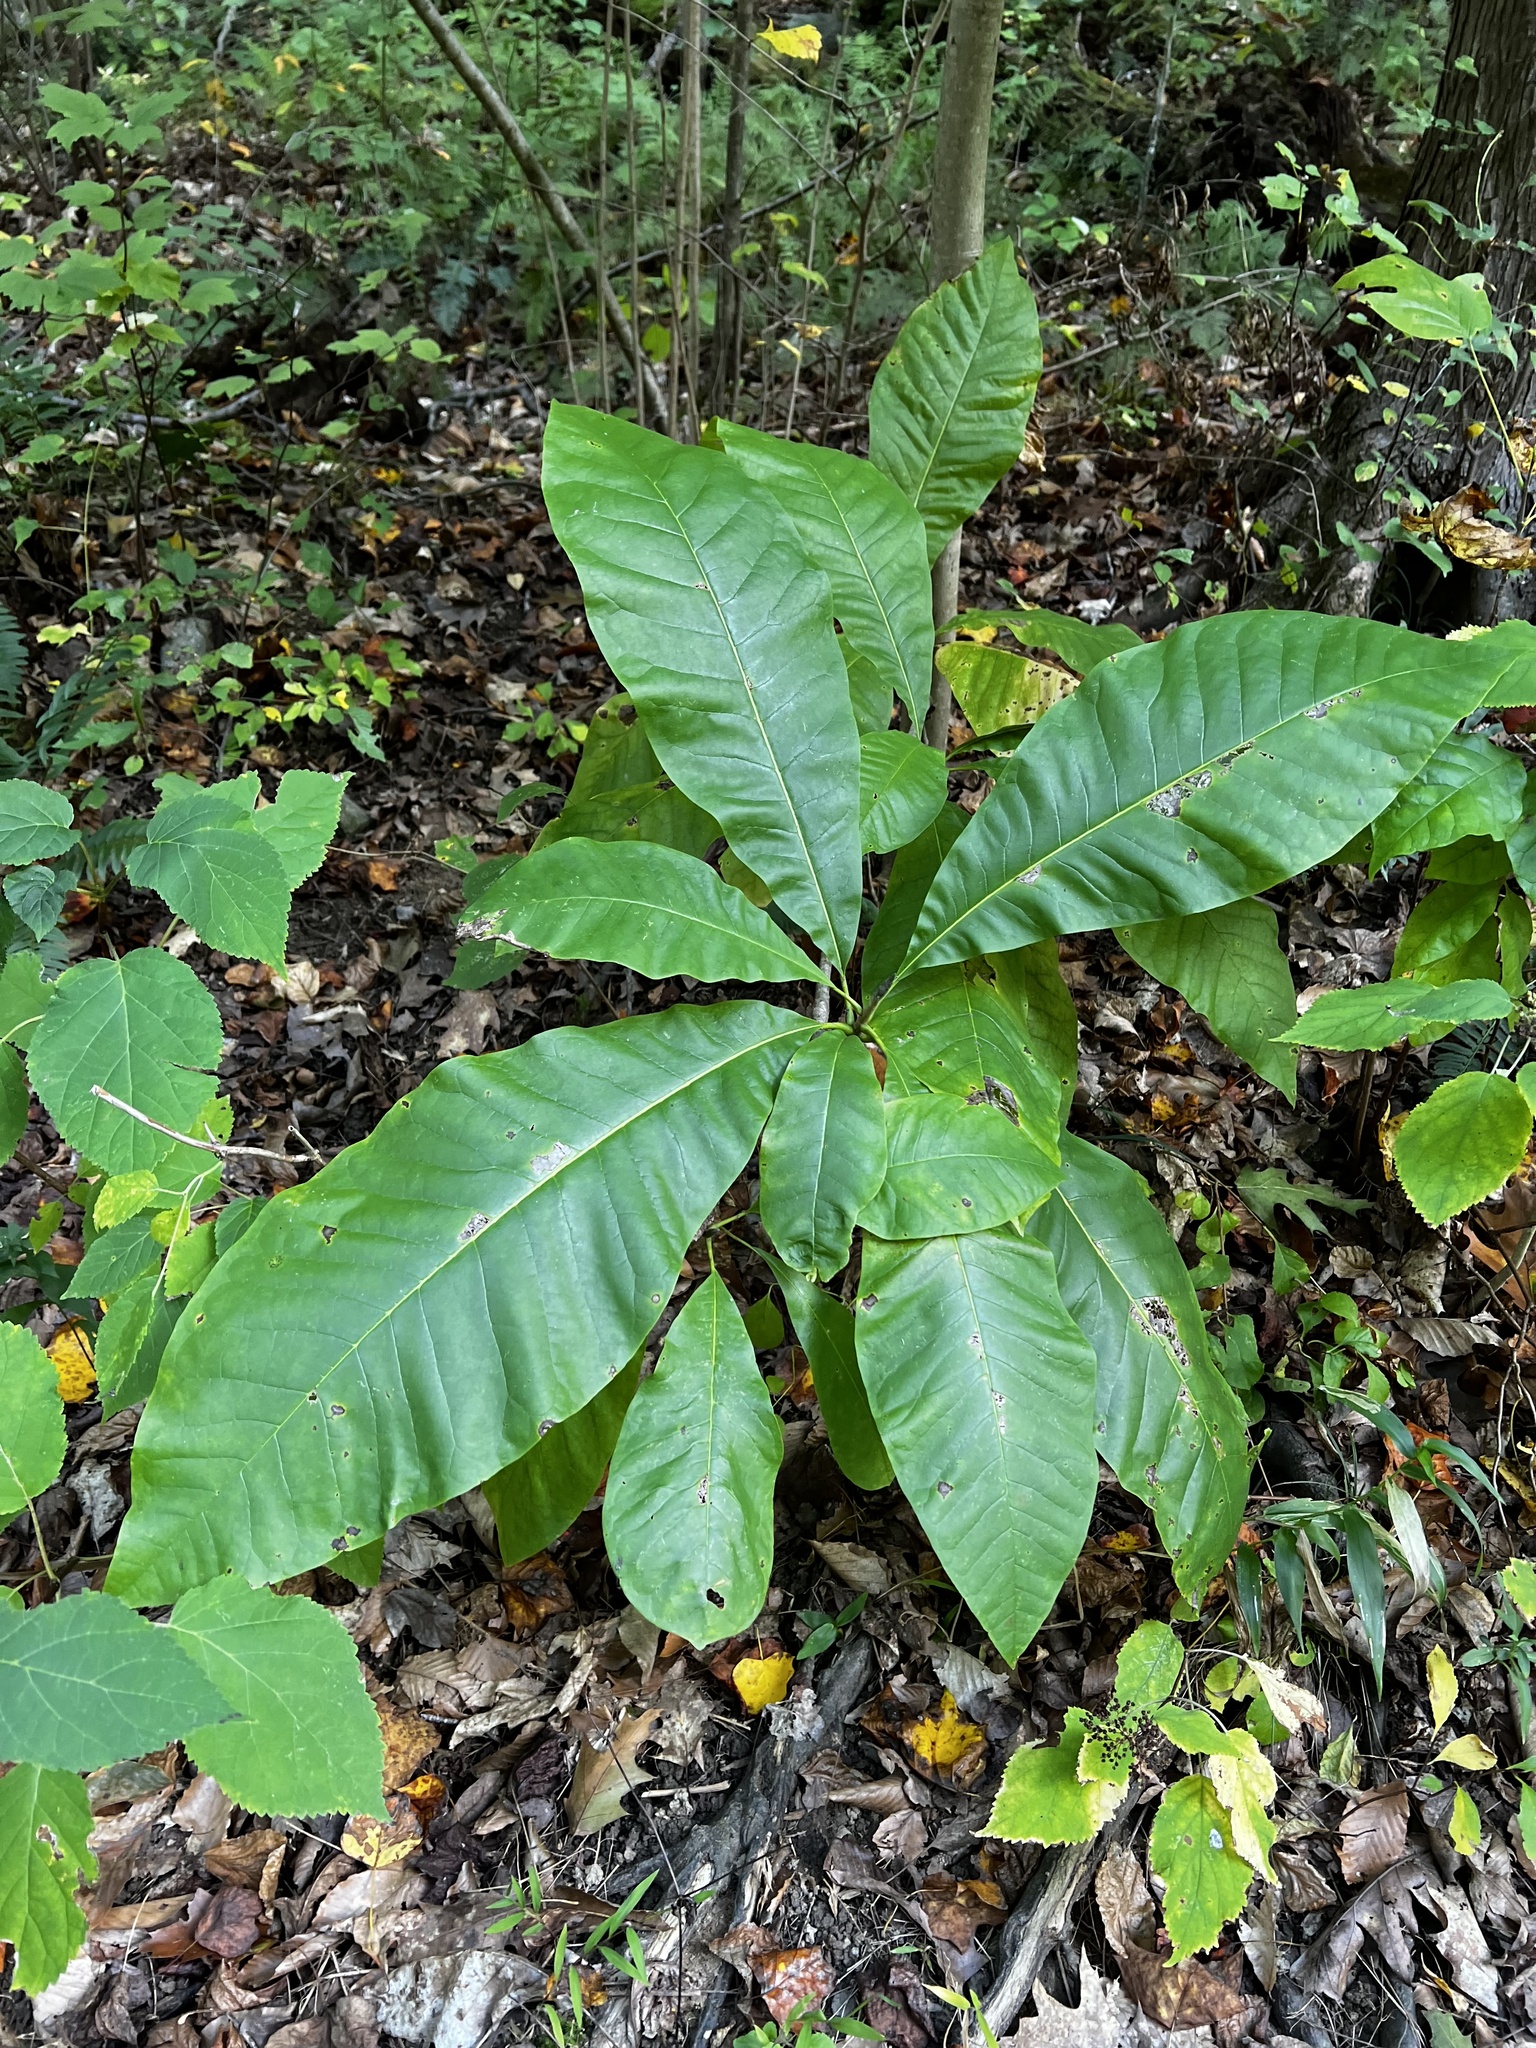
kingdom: Plantae
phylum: Tracheophyta
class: Magnoliopsida
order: Magnoliales
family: Magnoliaceae
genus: Magnolia
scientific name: Magnolia tripetala
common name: Umbrella magnolia
